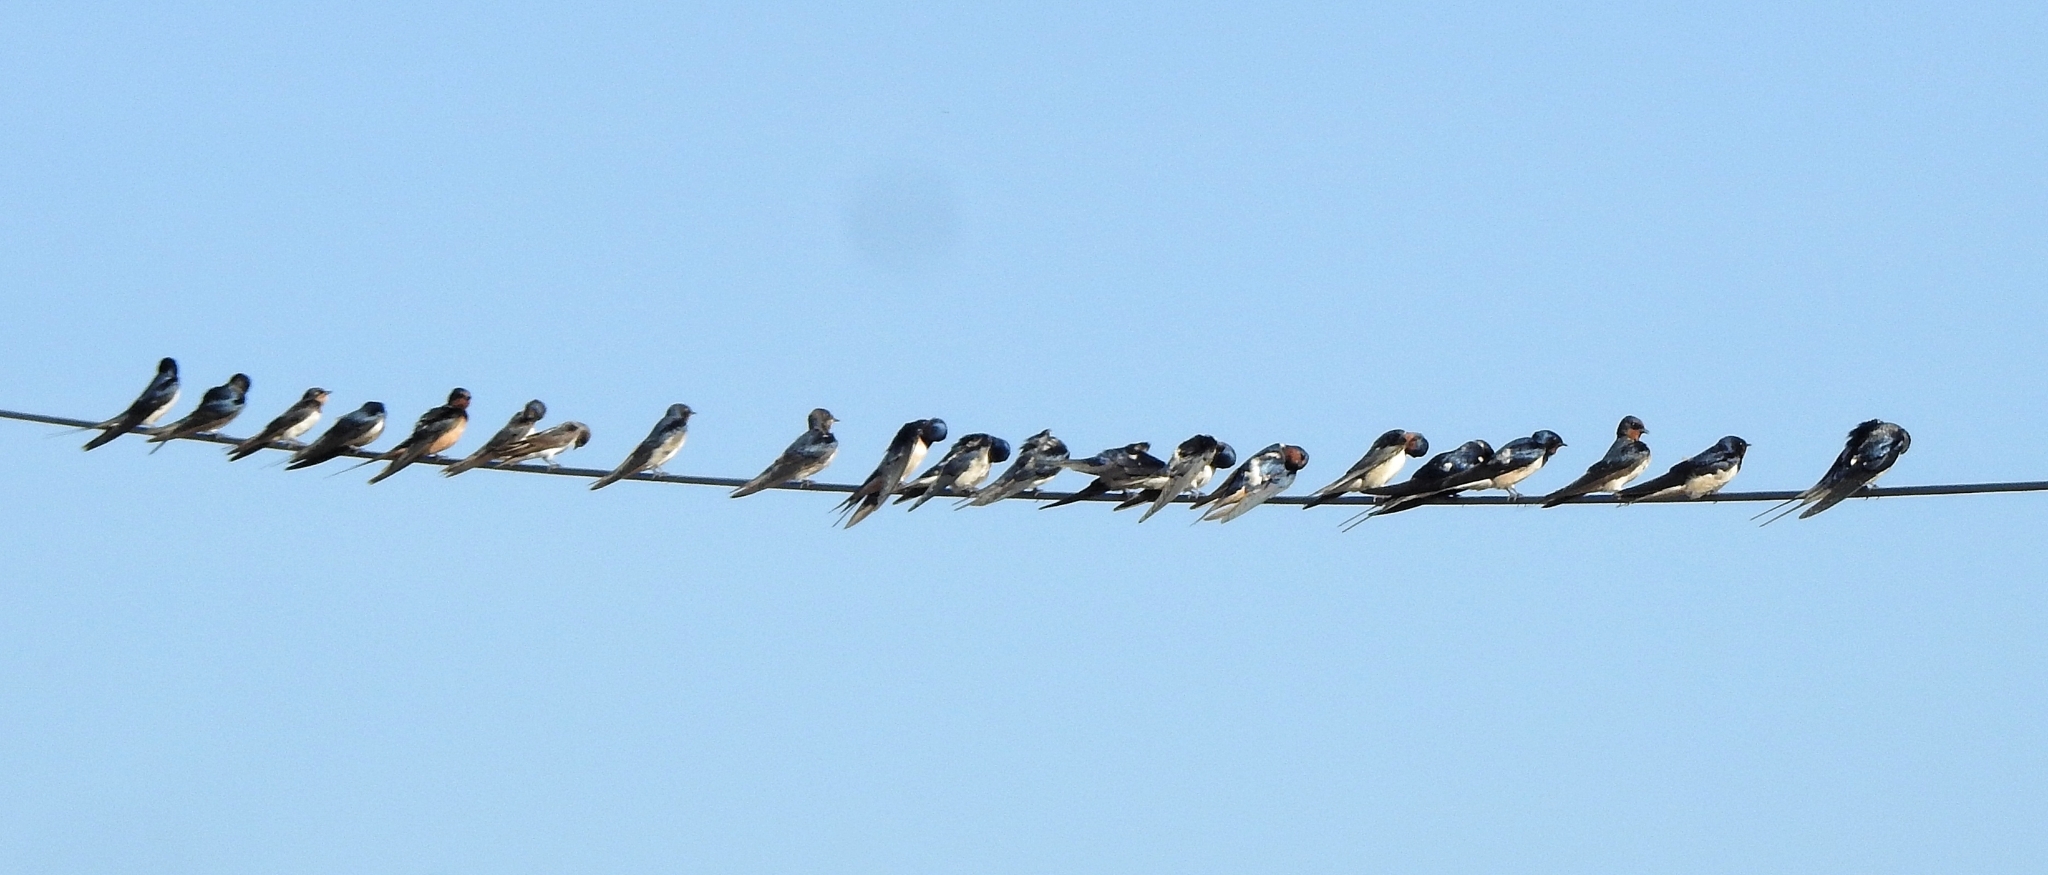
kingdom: Animalia
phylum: Chordata
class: Aves
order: Passeriformes
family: Hirundinidae
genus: Hirundo
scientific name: Hirundo rustica
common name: Barn swallow
